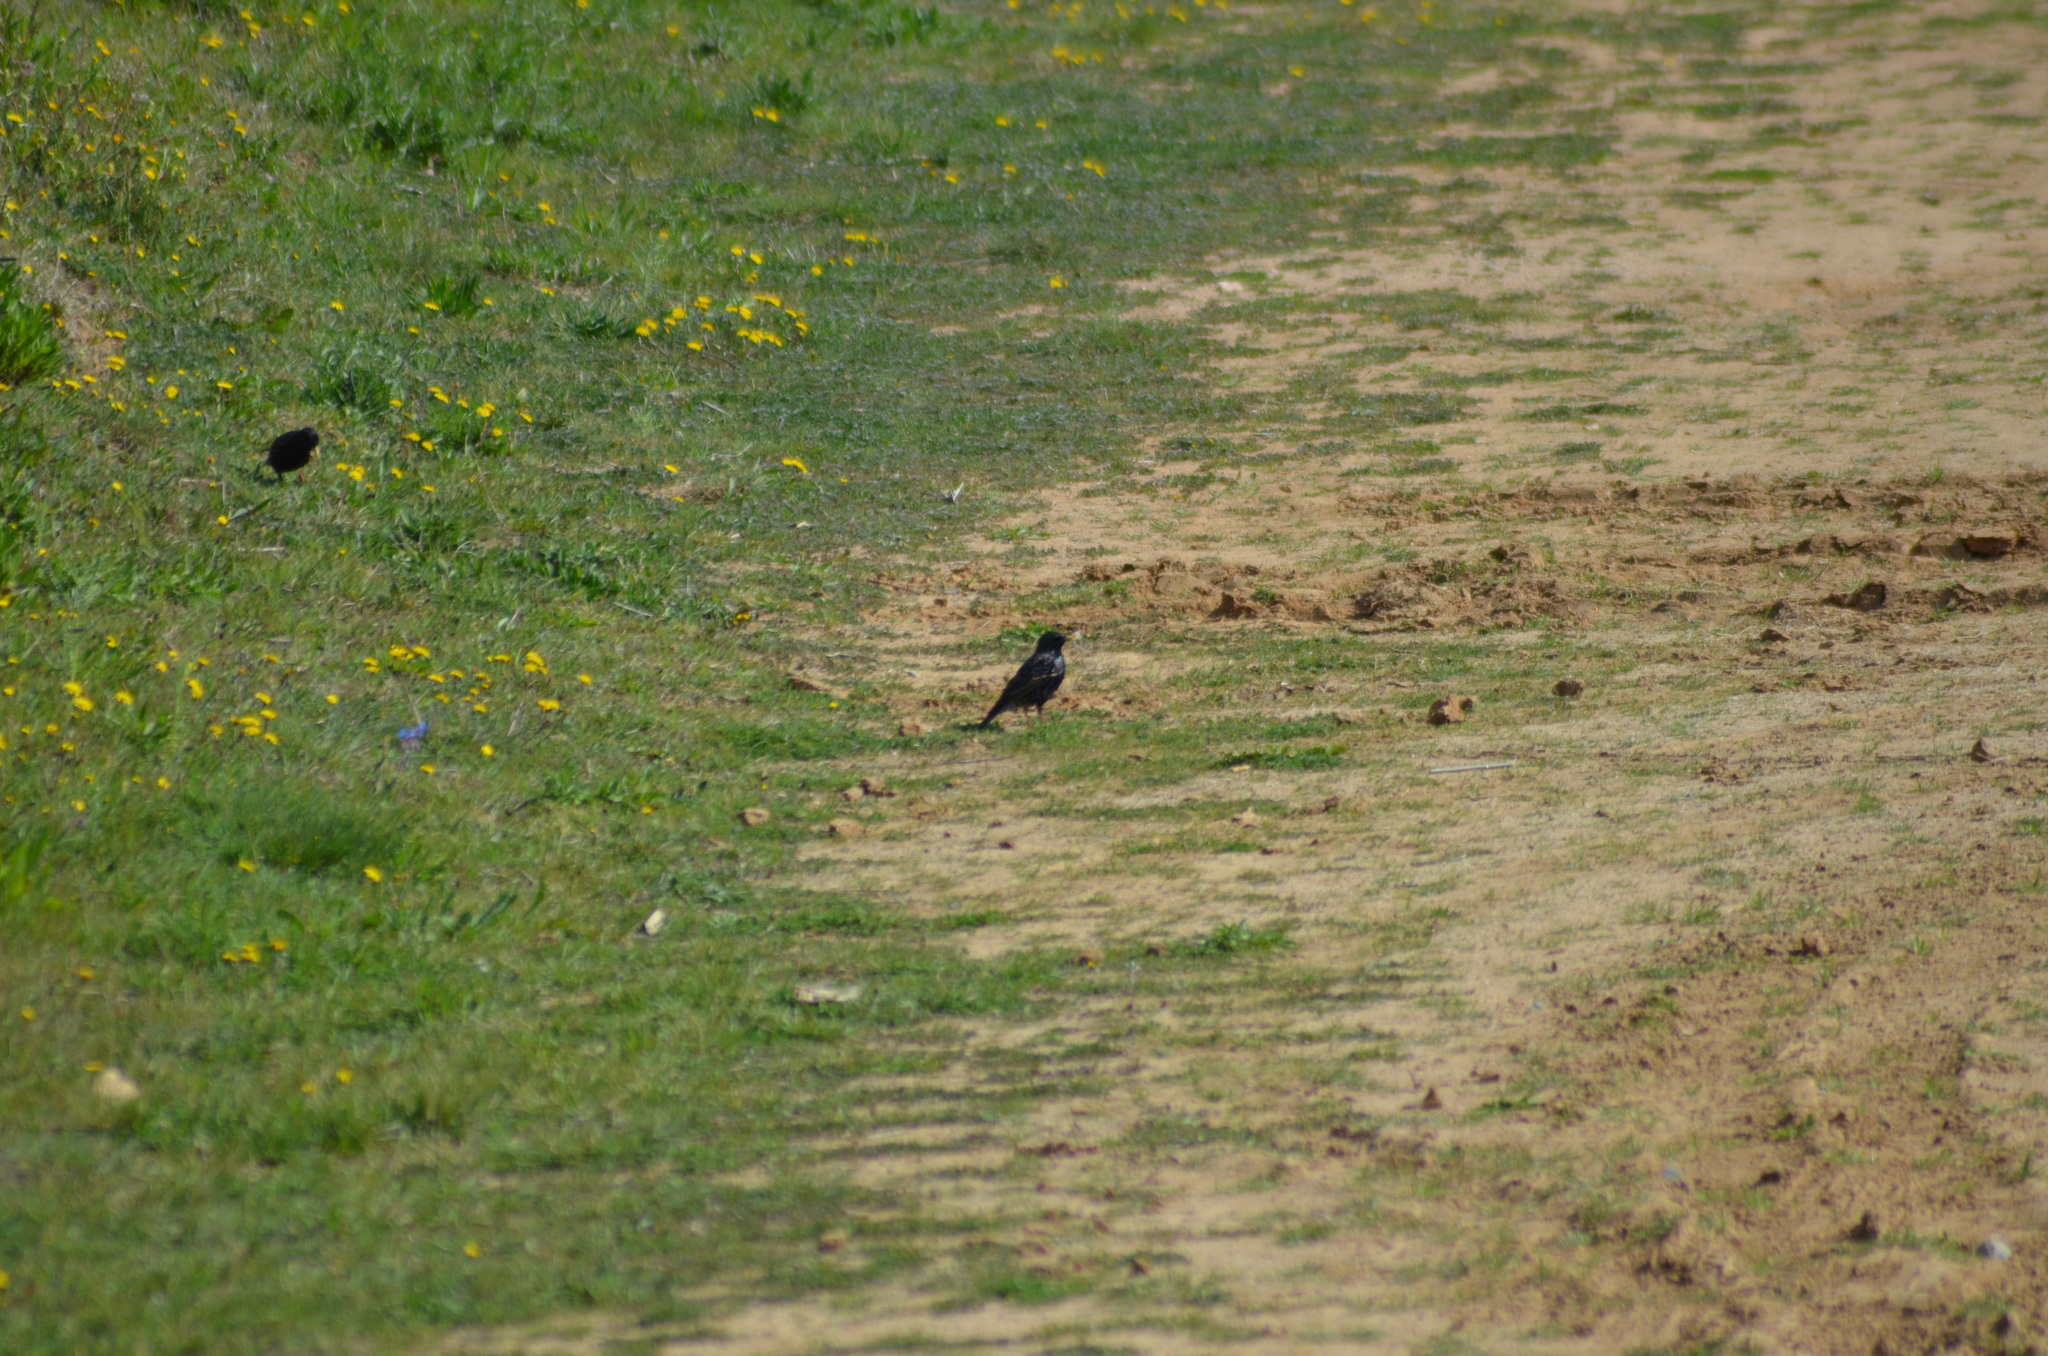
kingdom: Animalia
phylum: Chordata
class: Aves
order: Passeriformes
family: Sturnidae
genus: Sturnus
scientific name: Sturnus vulgaris
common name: Common starling
